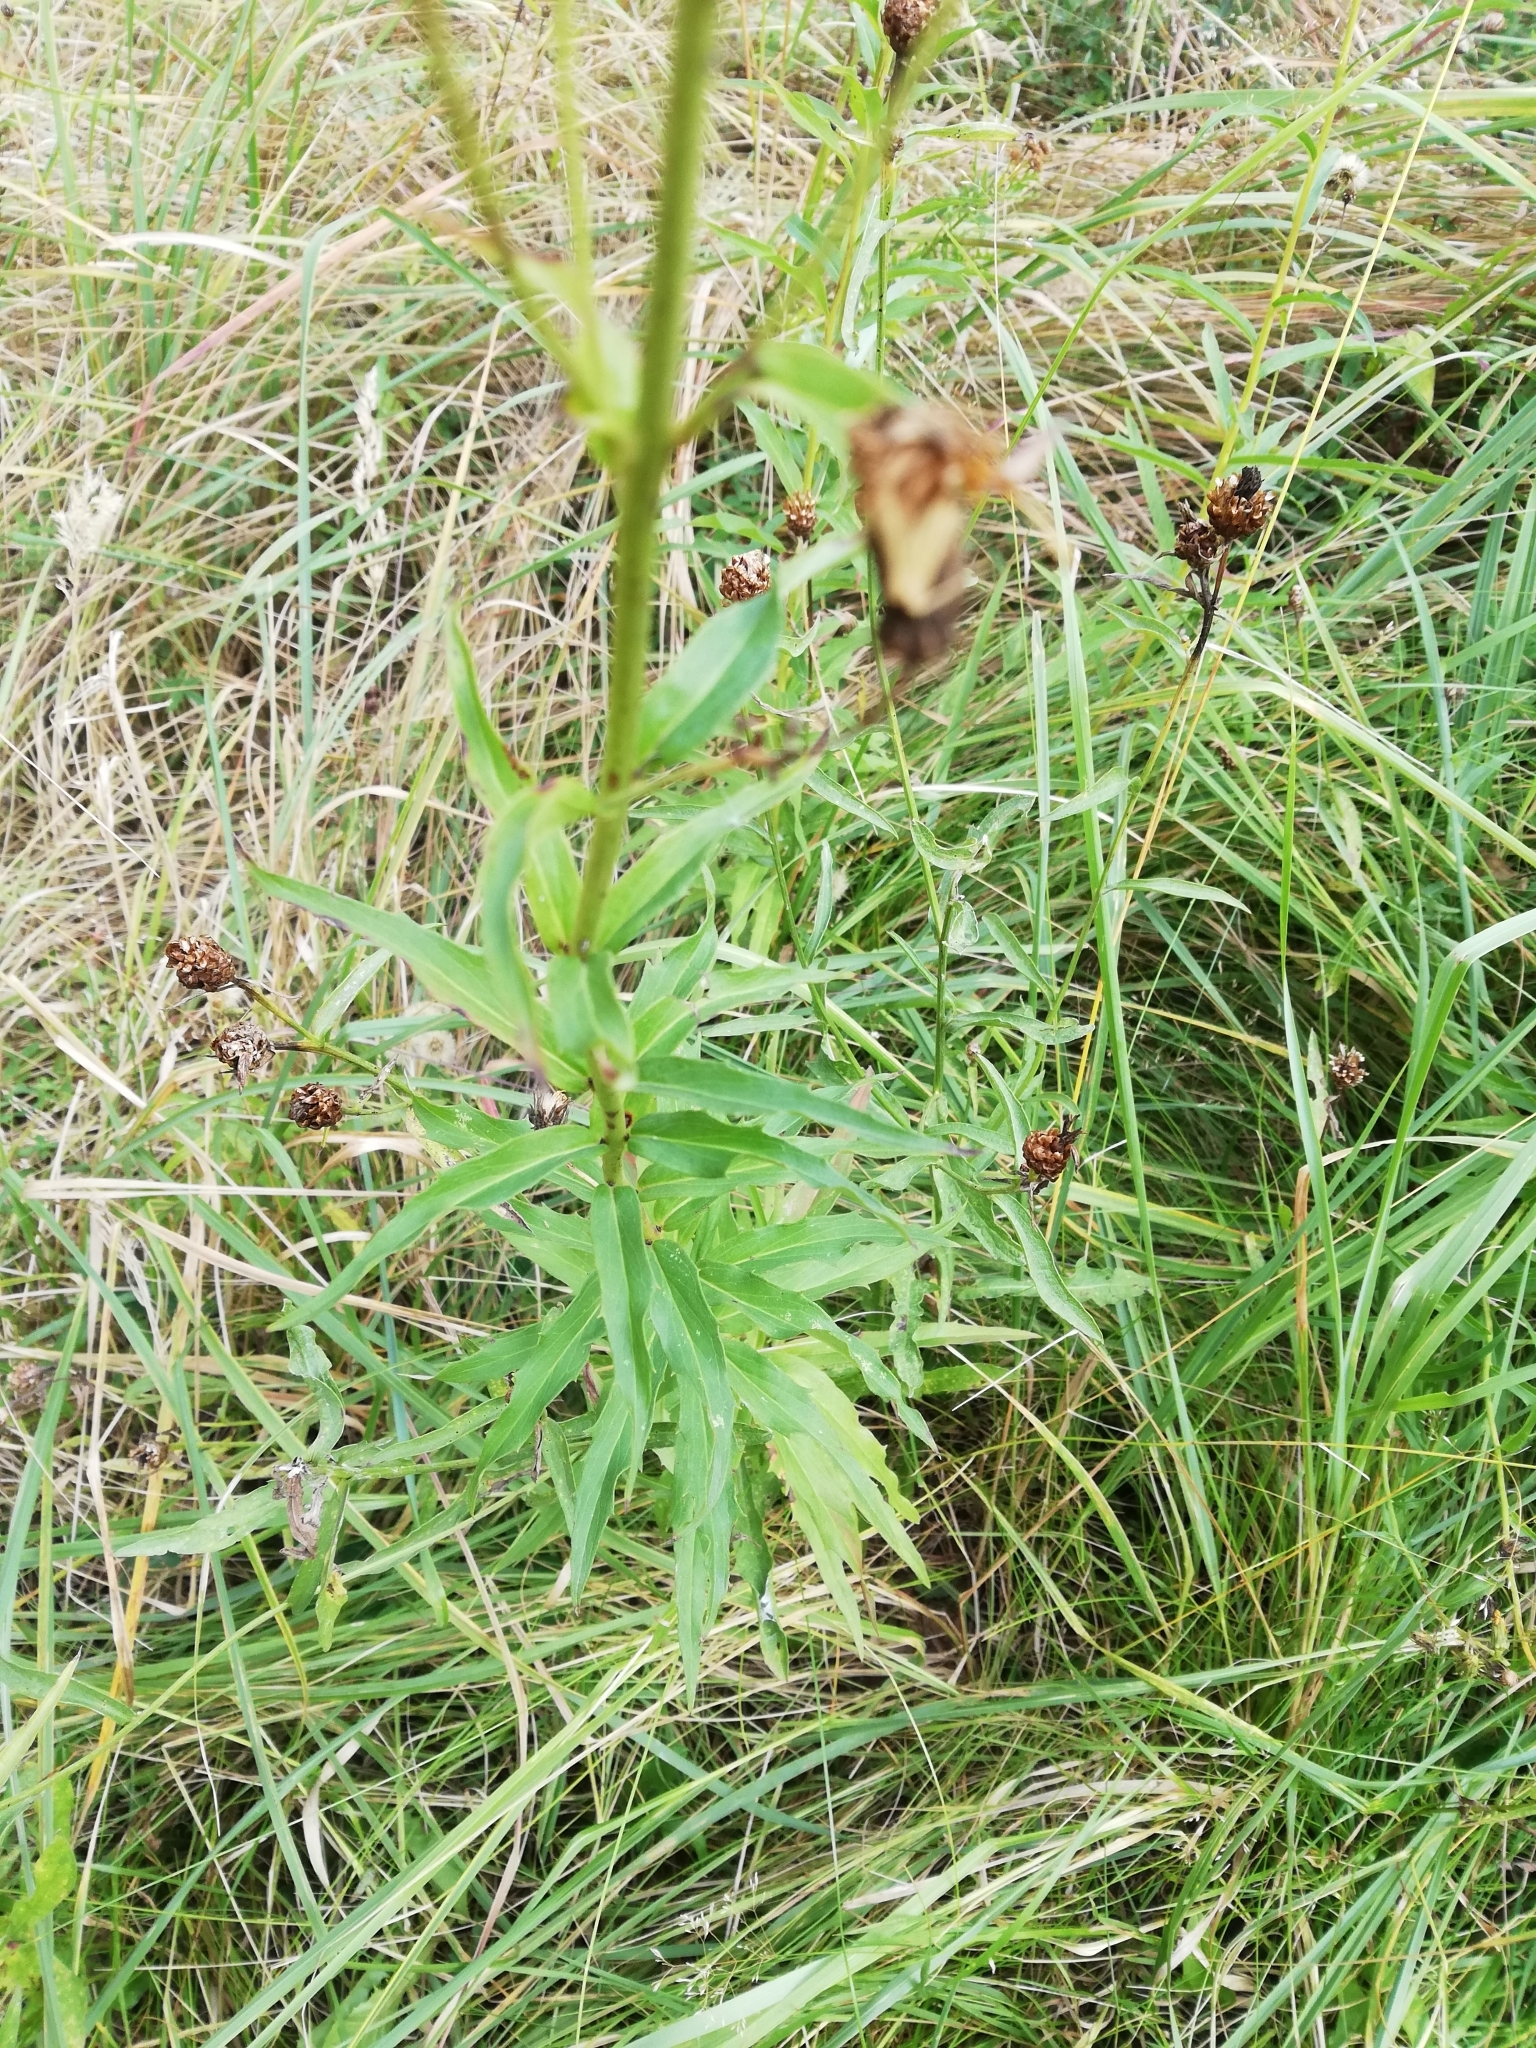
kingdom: Plantae
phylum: Tracheophyta
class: Magnoliopsida
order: Asterales
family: Asteraceae
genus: Hieracium
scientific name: Hieracium umbellatum
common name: Northern hawkweed
